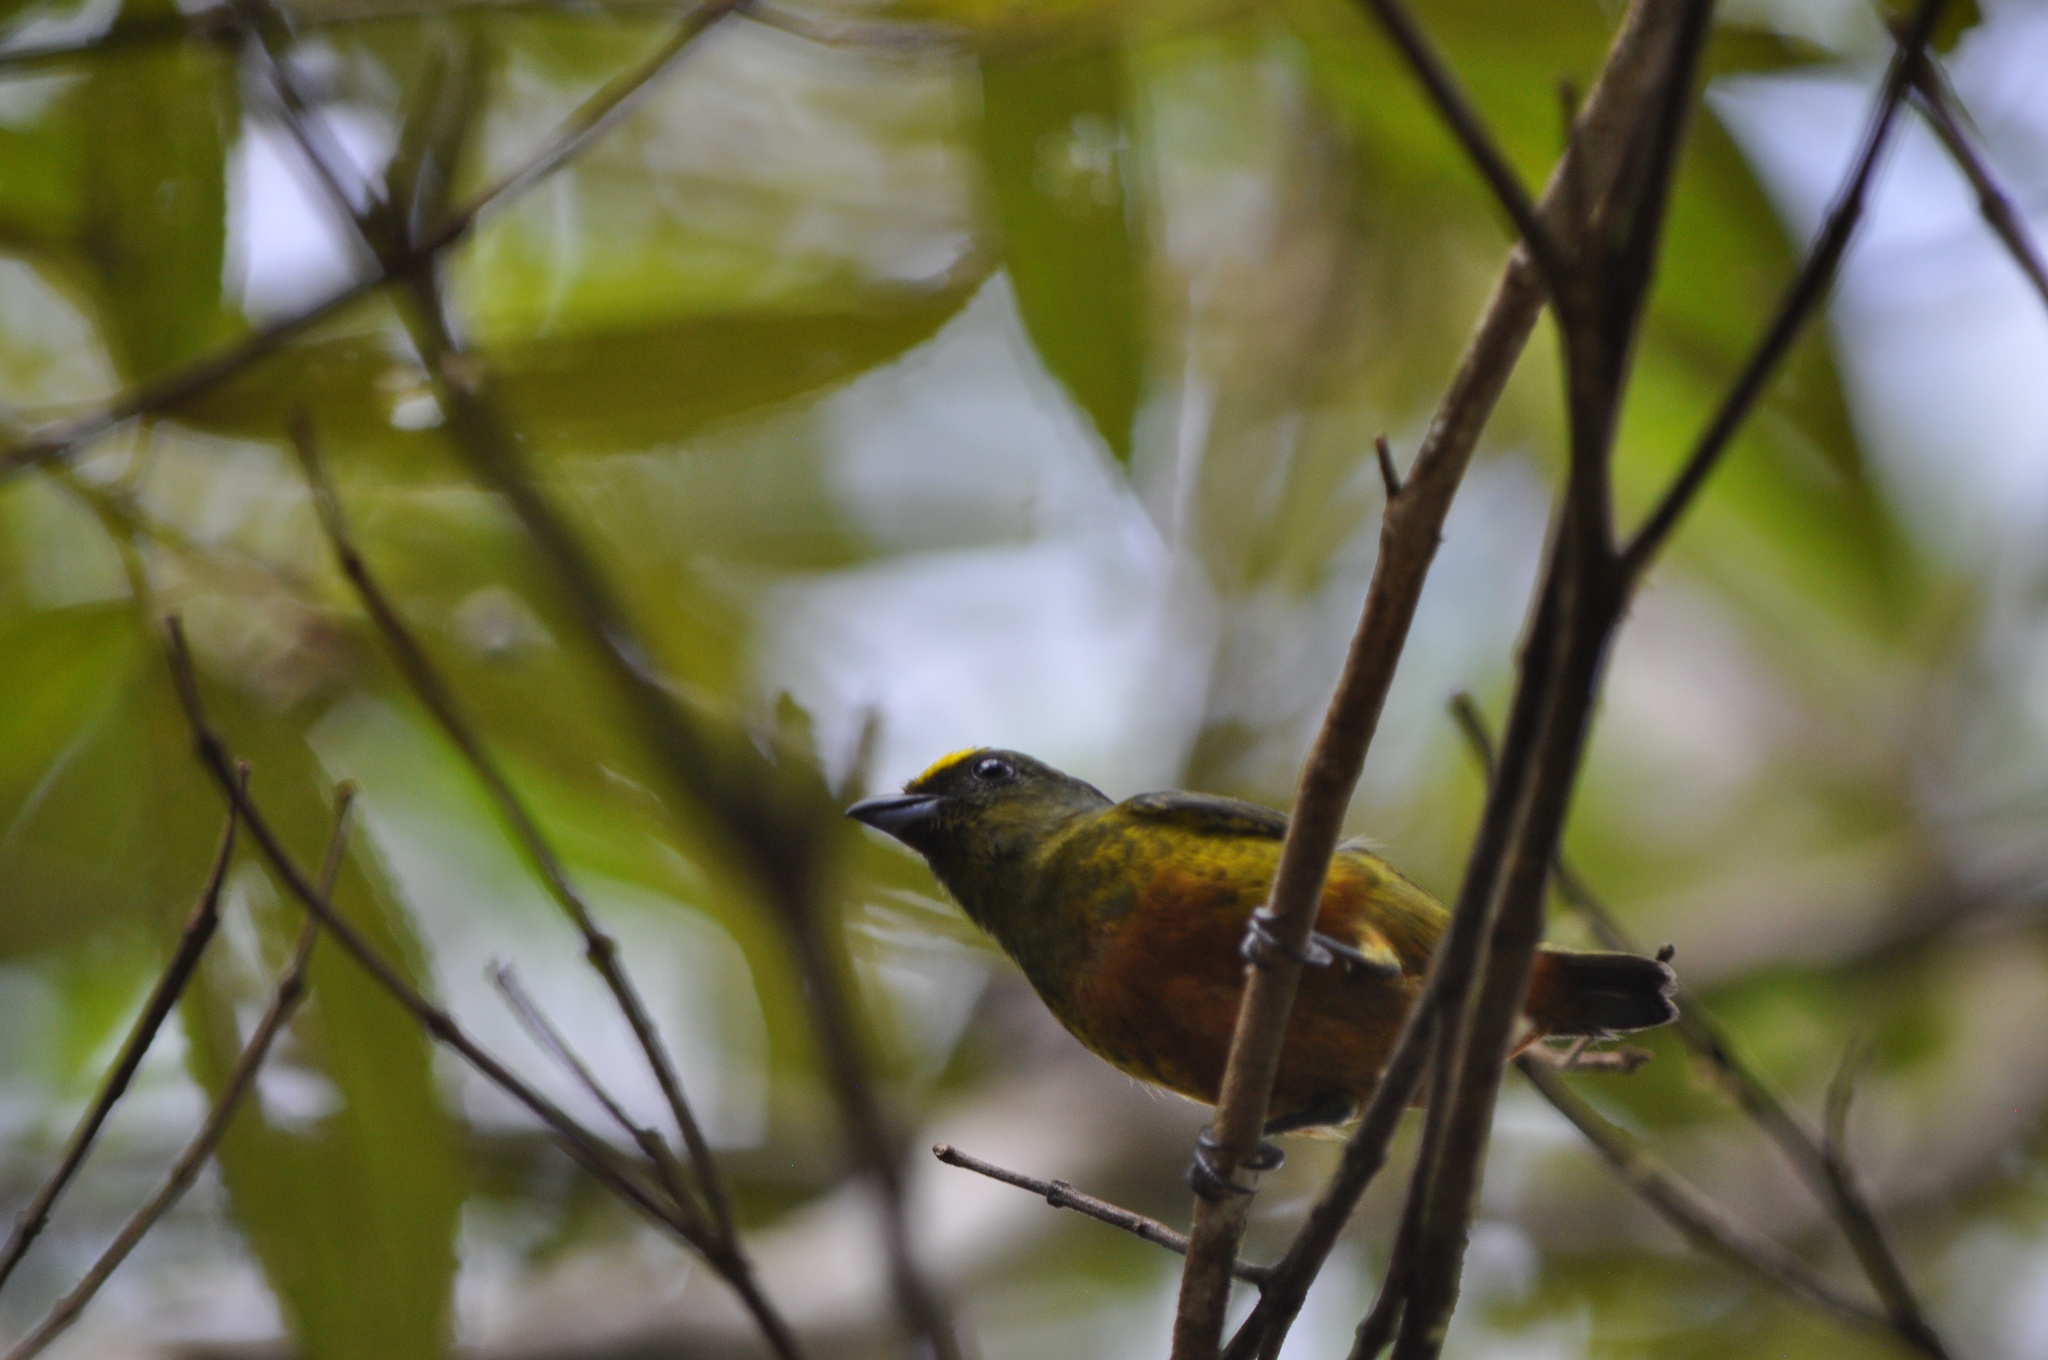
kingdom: Animalia
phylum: Chordata
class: Aves
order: Passeriformes
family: Fringillidae
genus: Euphonia
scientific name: Euphonia gouldi
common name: Olive-backed euphonia
